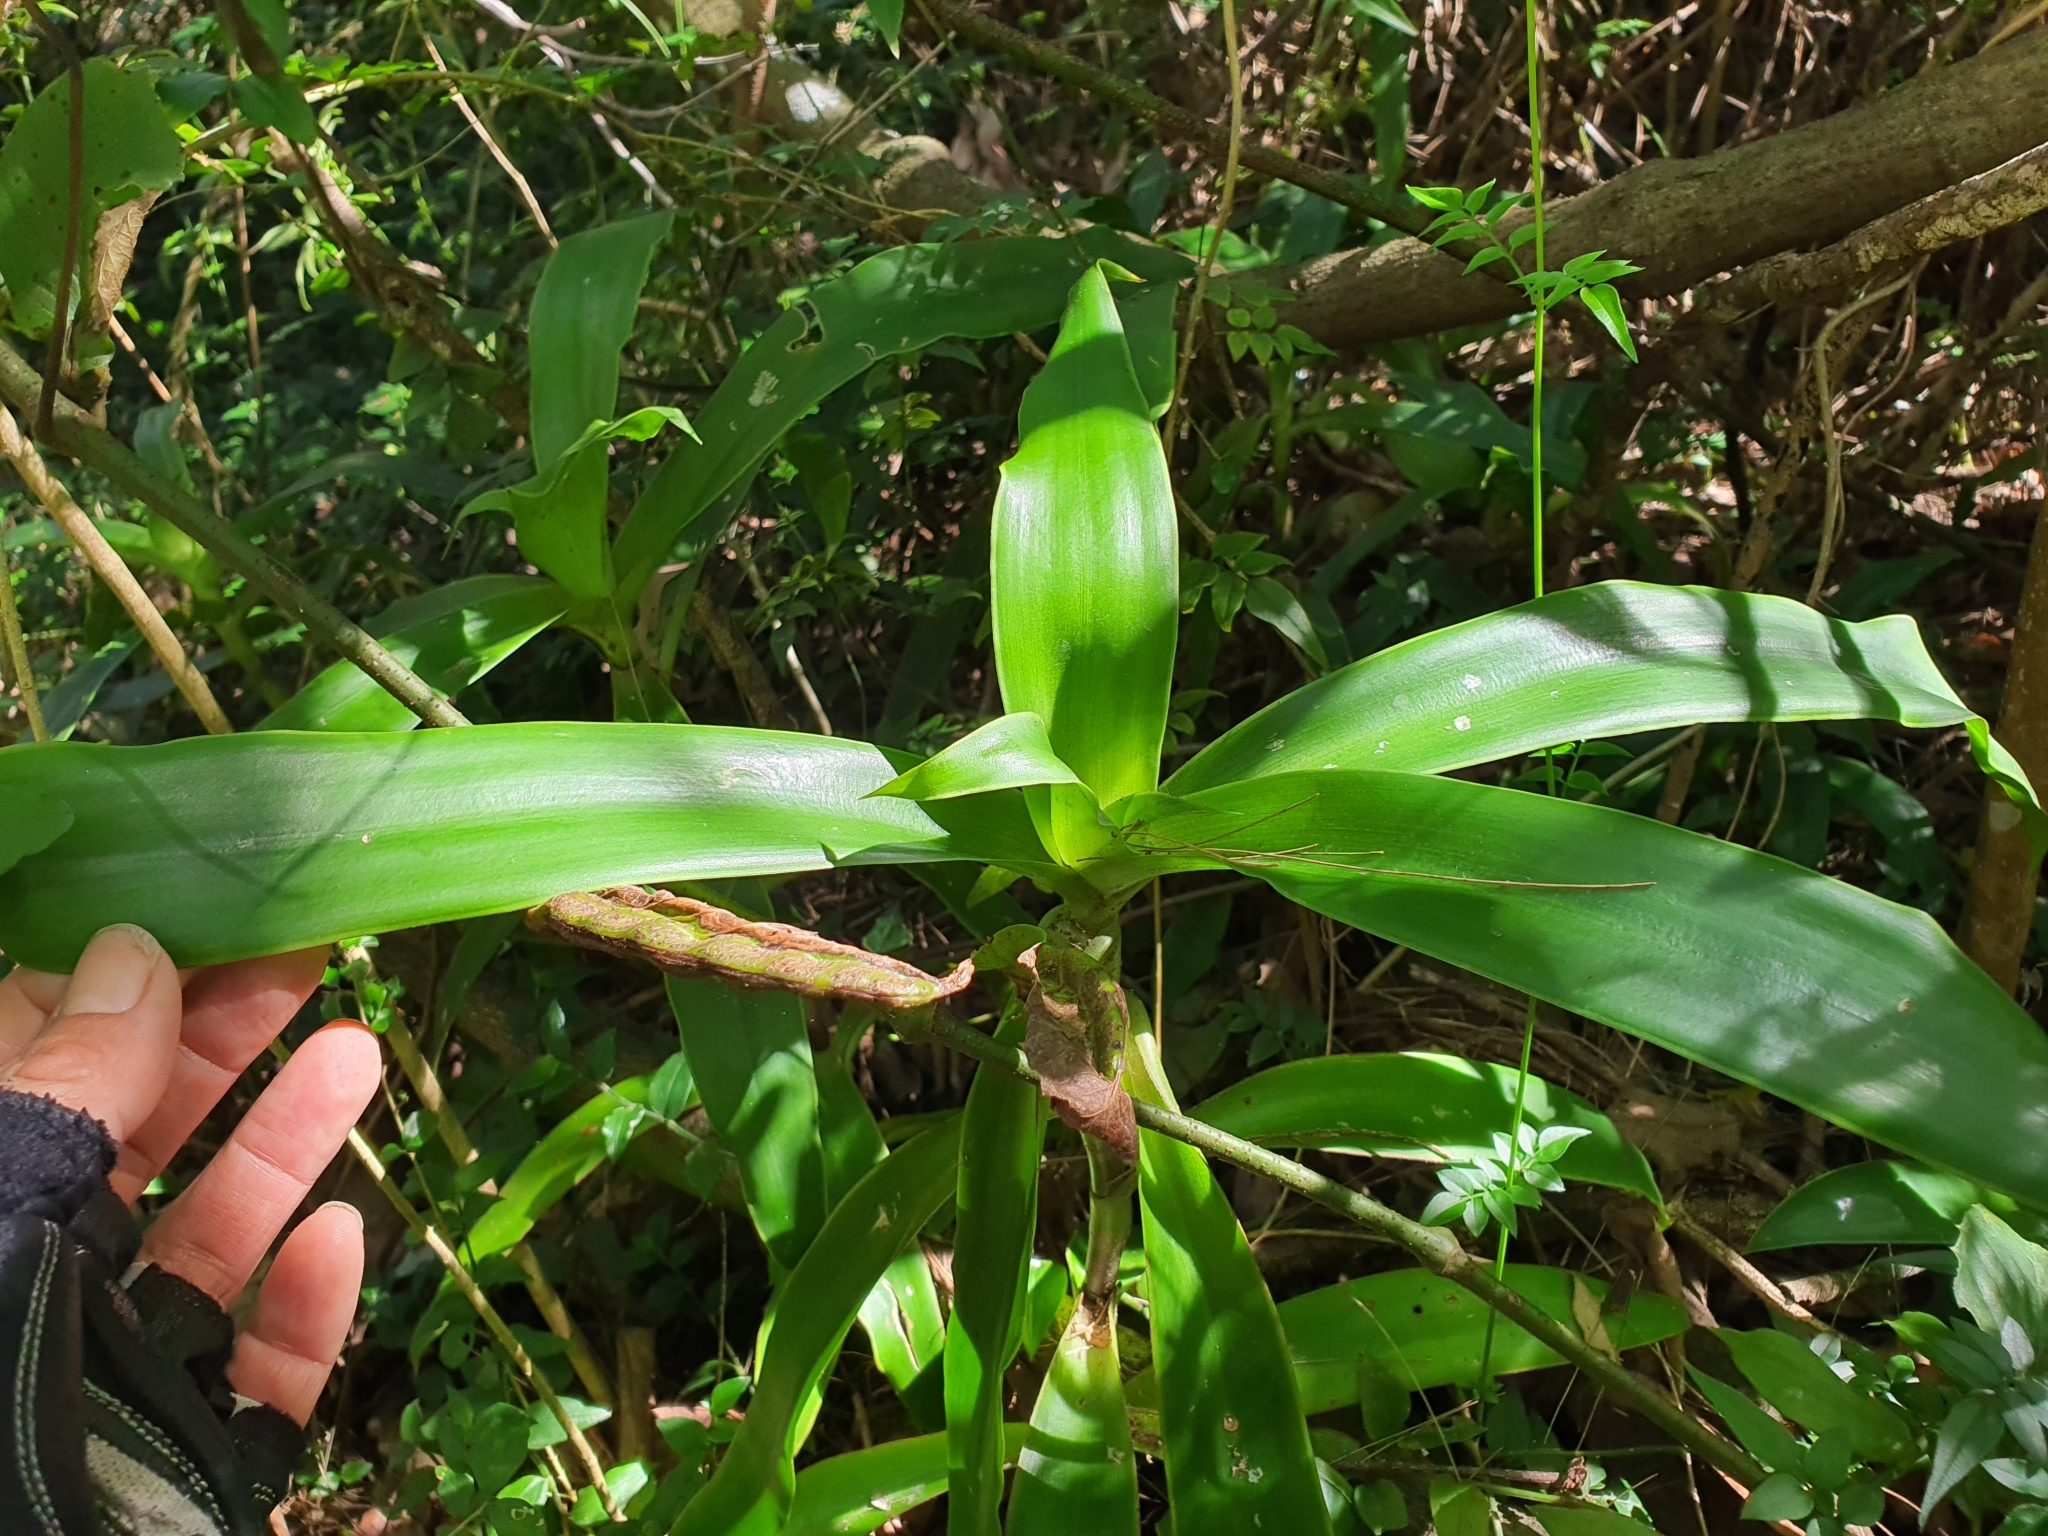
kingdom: Plantae
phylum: Tracheophyta
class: Liliopsida
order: Commelinales
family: Commelinaceae
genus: Callisia
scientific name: Callisia fragrans
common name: Basketplant
